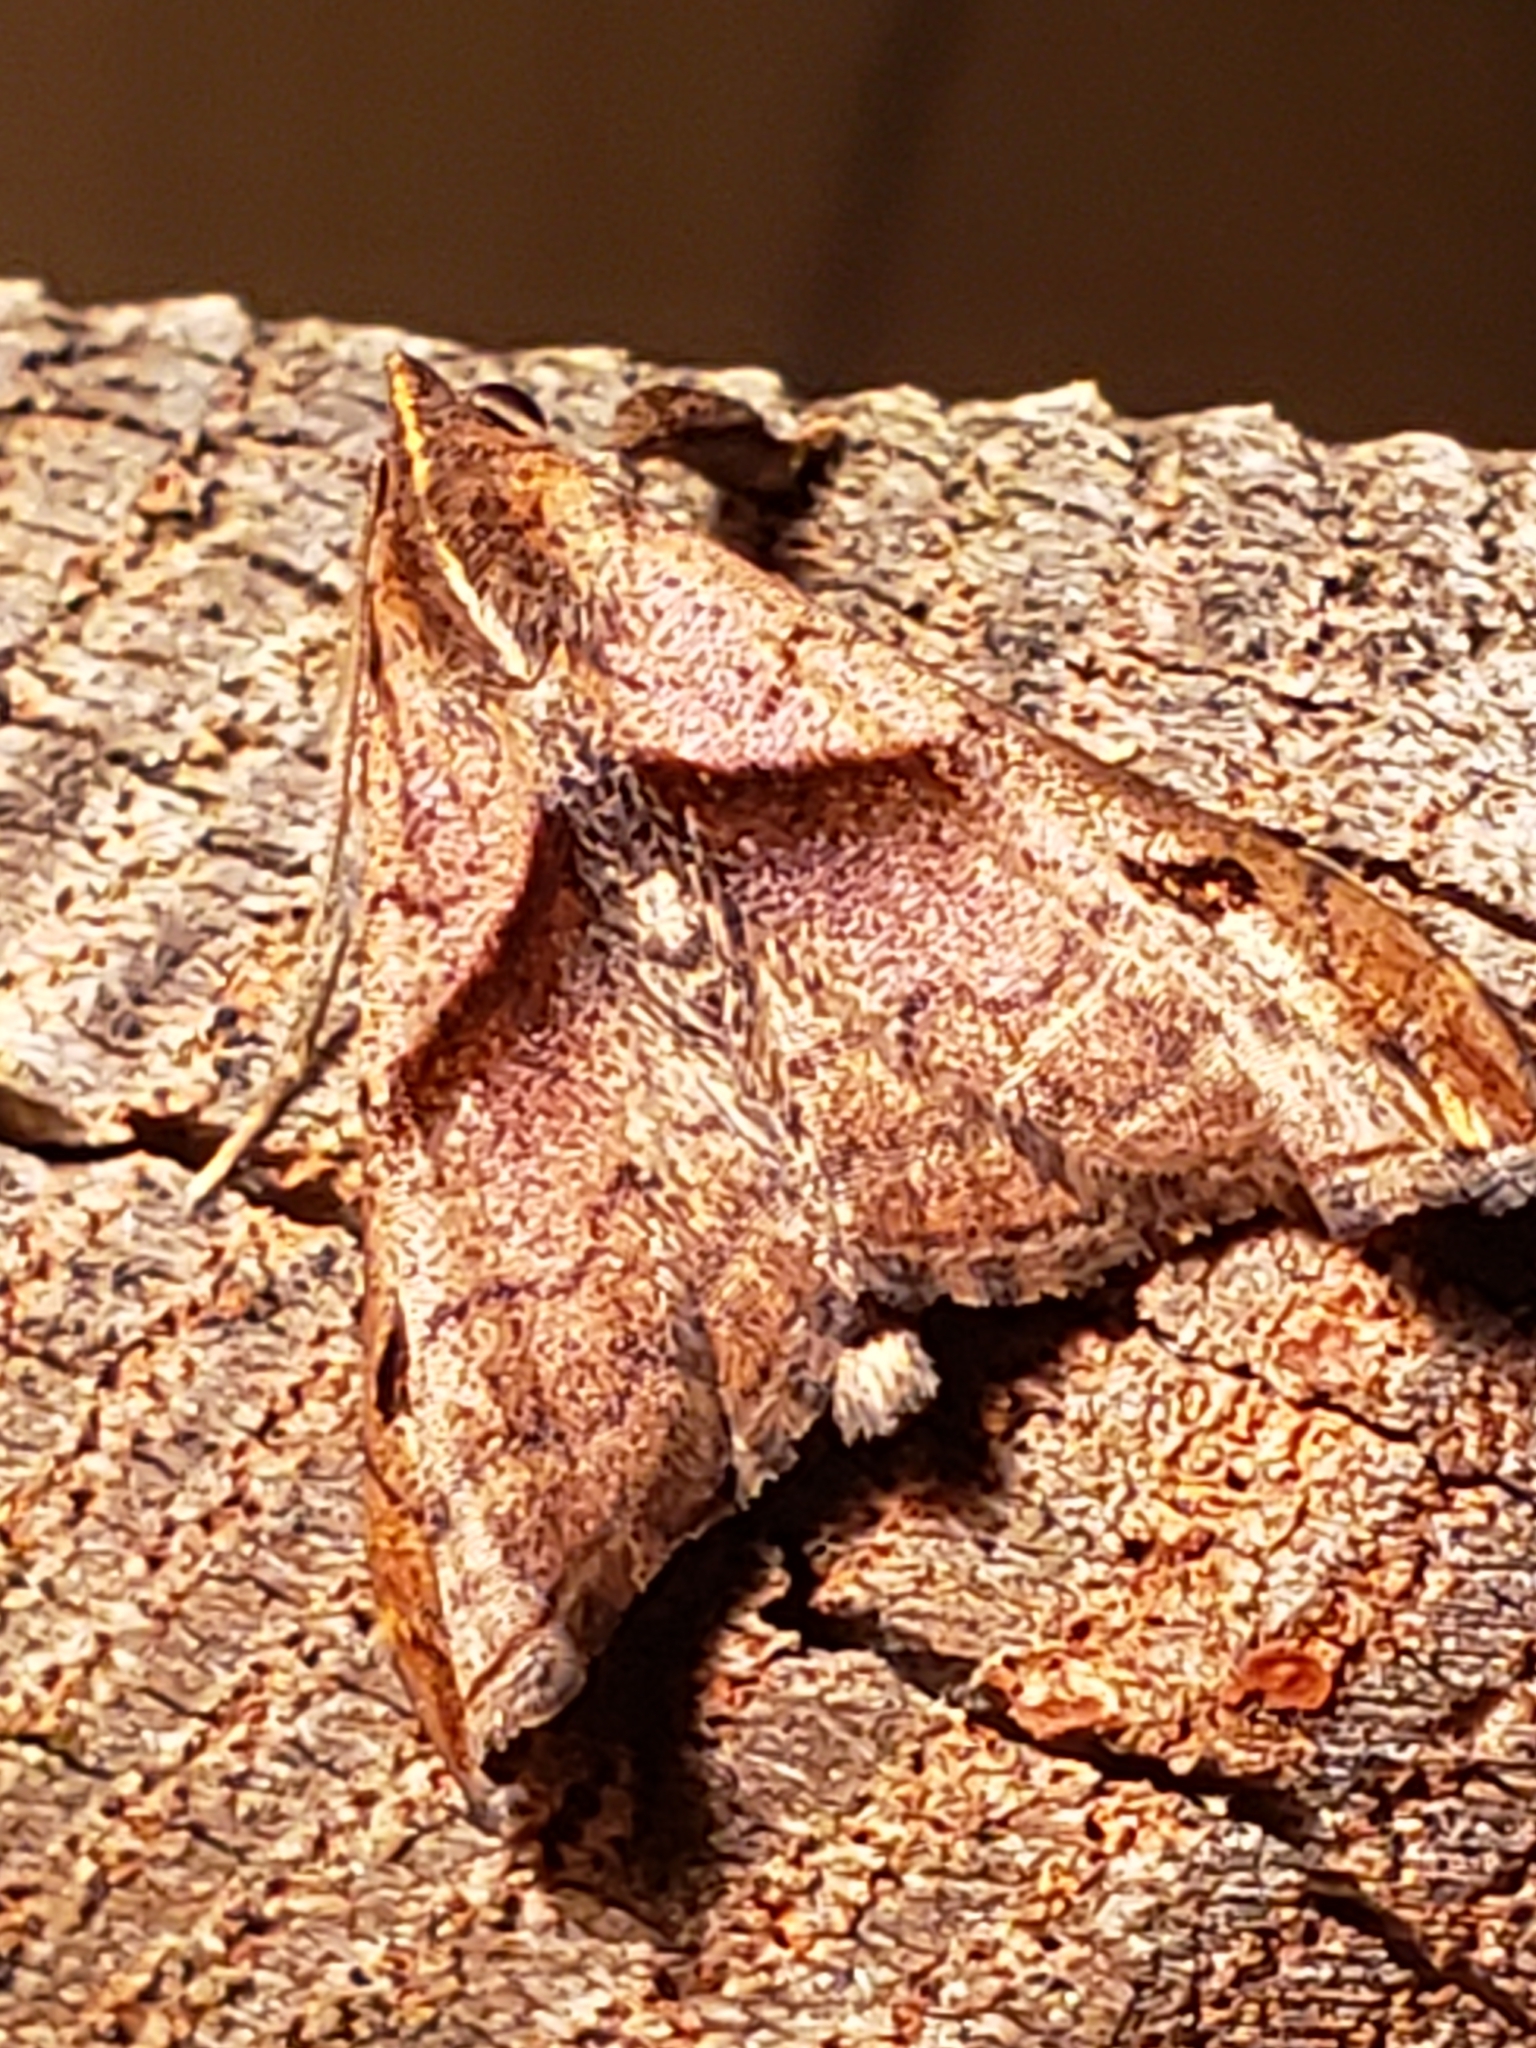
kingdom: Animalia
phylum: Arthropoda
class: Insecta
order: Lepidoptera
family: Erebidae
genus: Palthis
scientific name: Palthis angulalis
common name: Dark-spotted palthis moth
